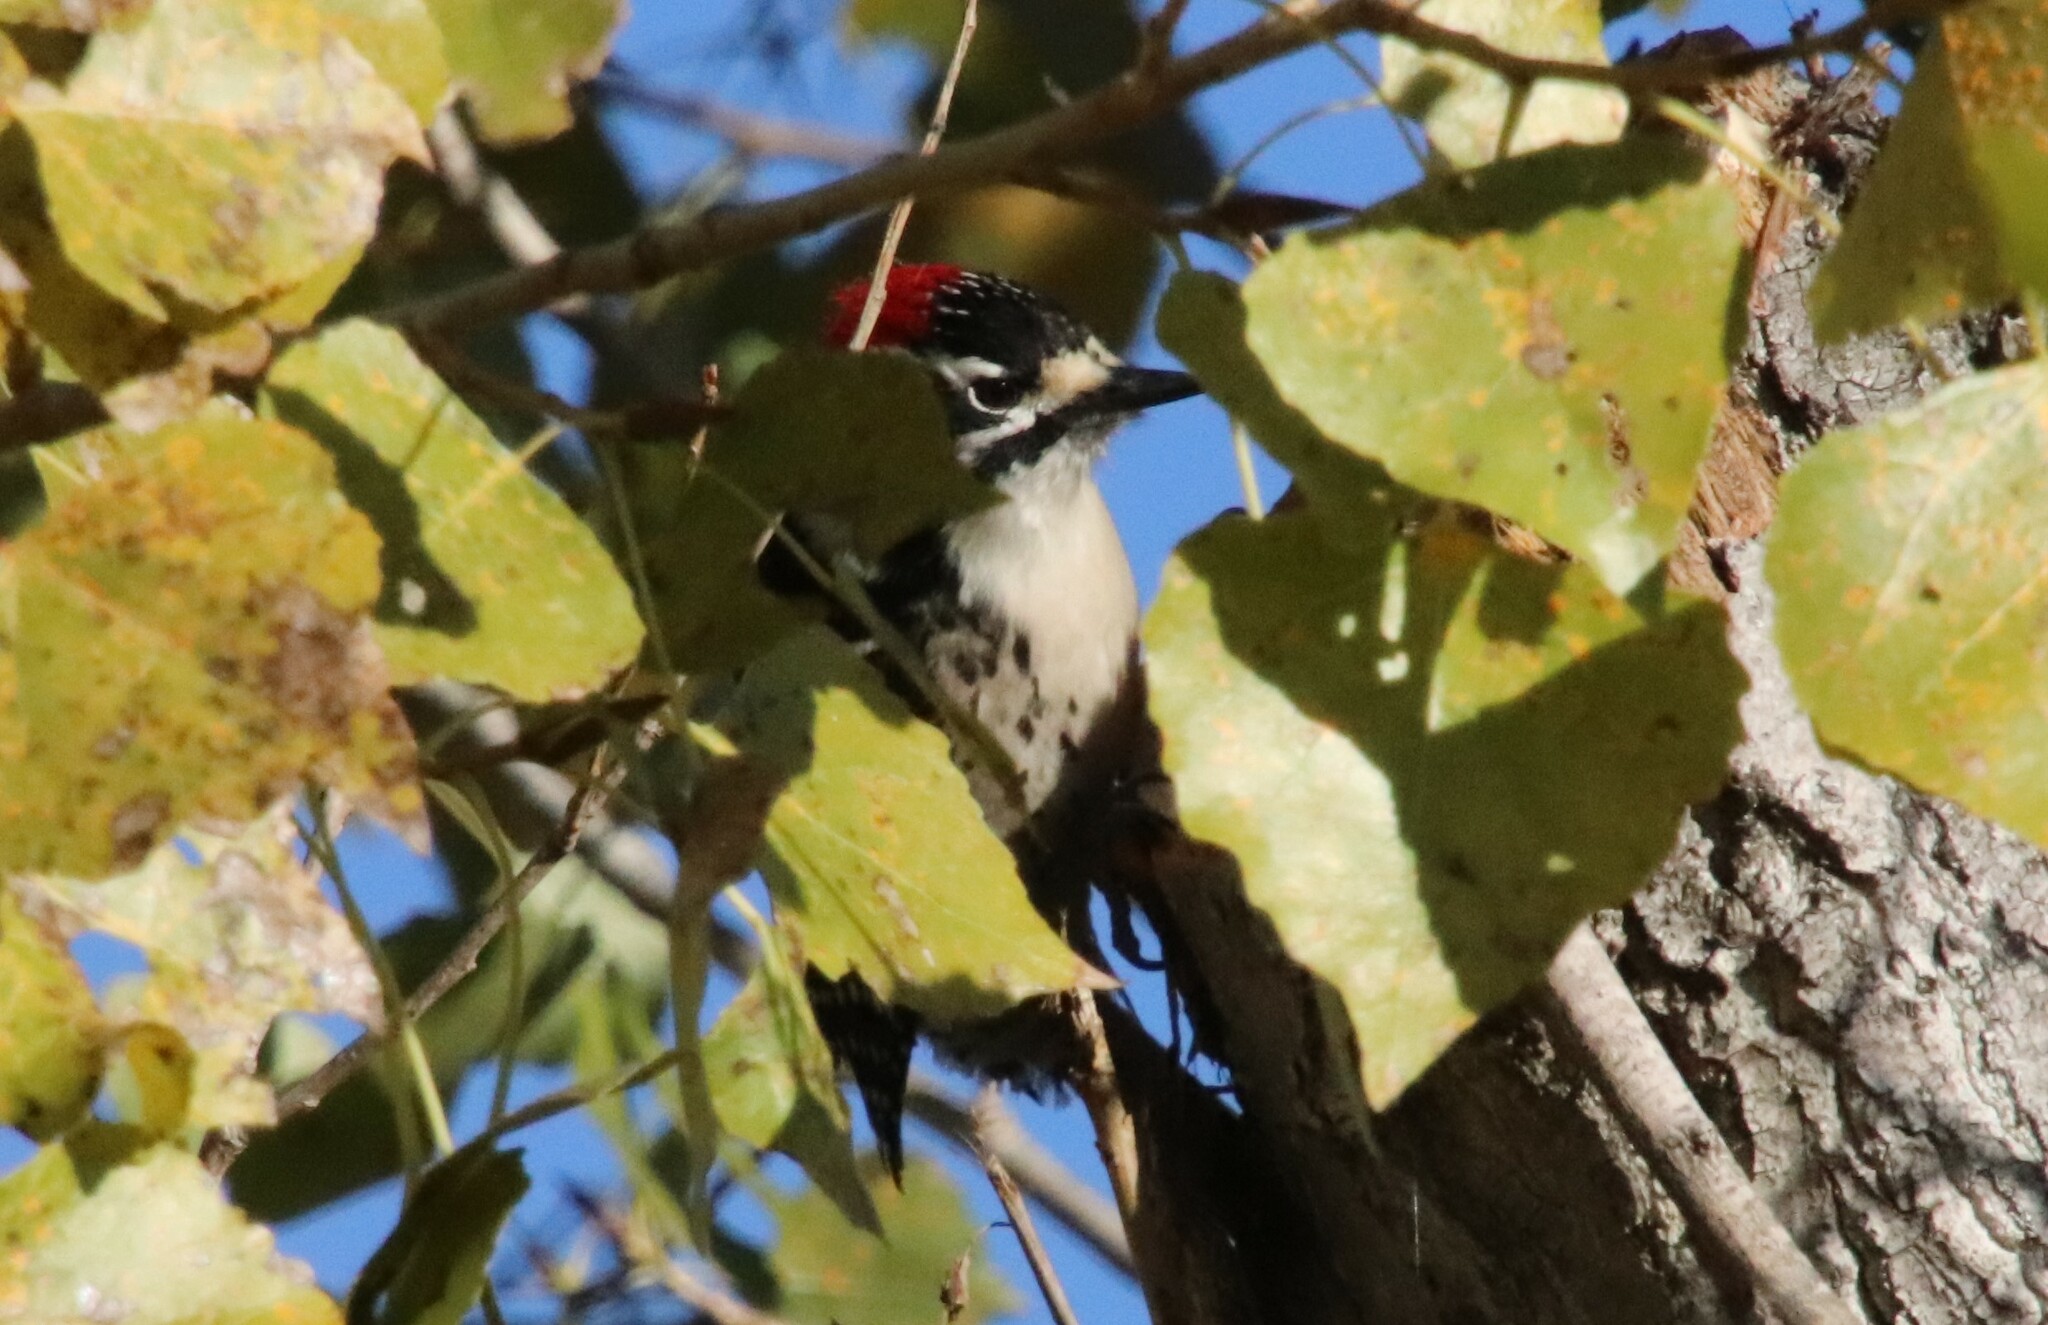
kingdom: Animalia
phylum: Chordata
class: Aves
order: Piciformes
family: Picidae
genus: Dryobates
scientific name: Dryobates nuttallii
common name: Nuttall's woodpecker
